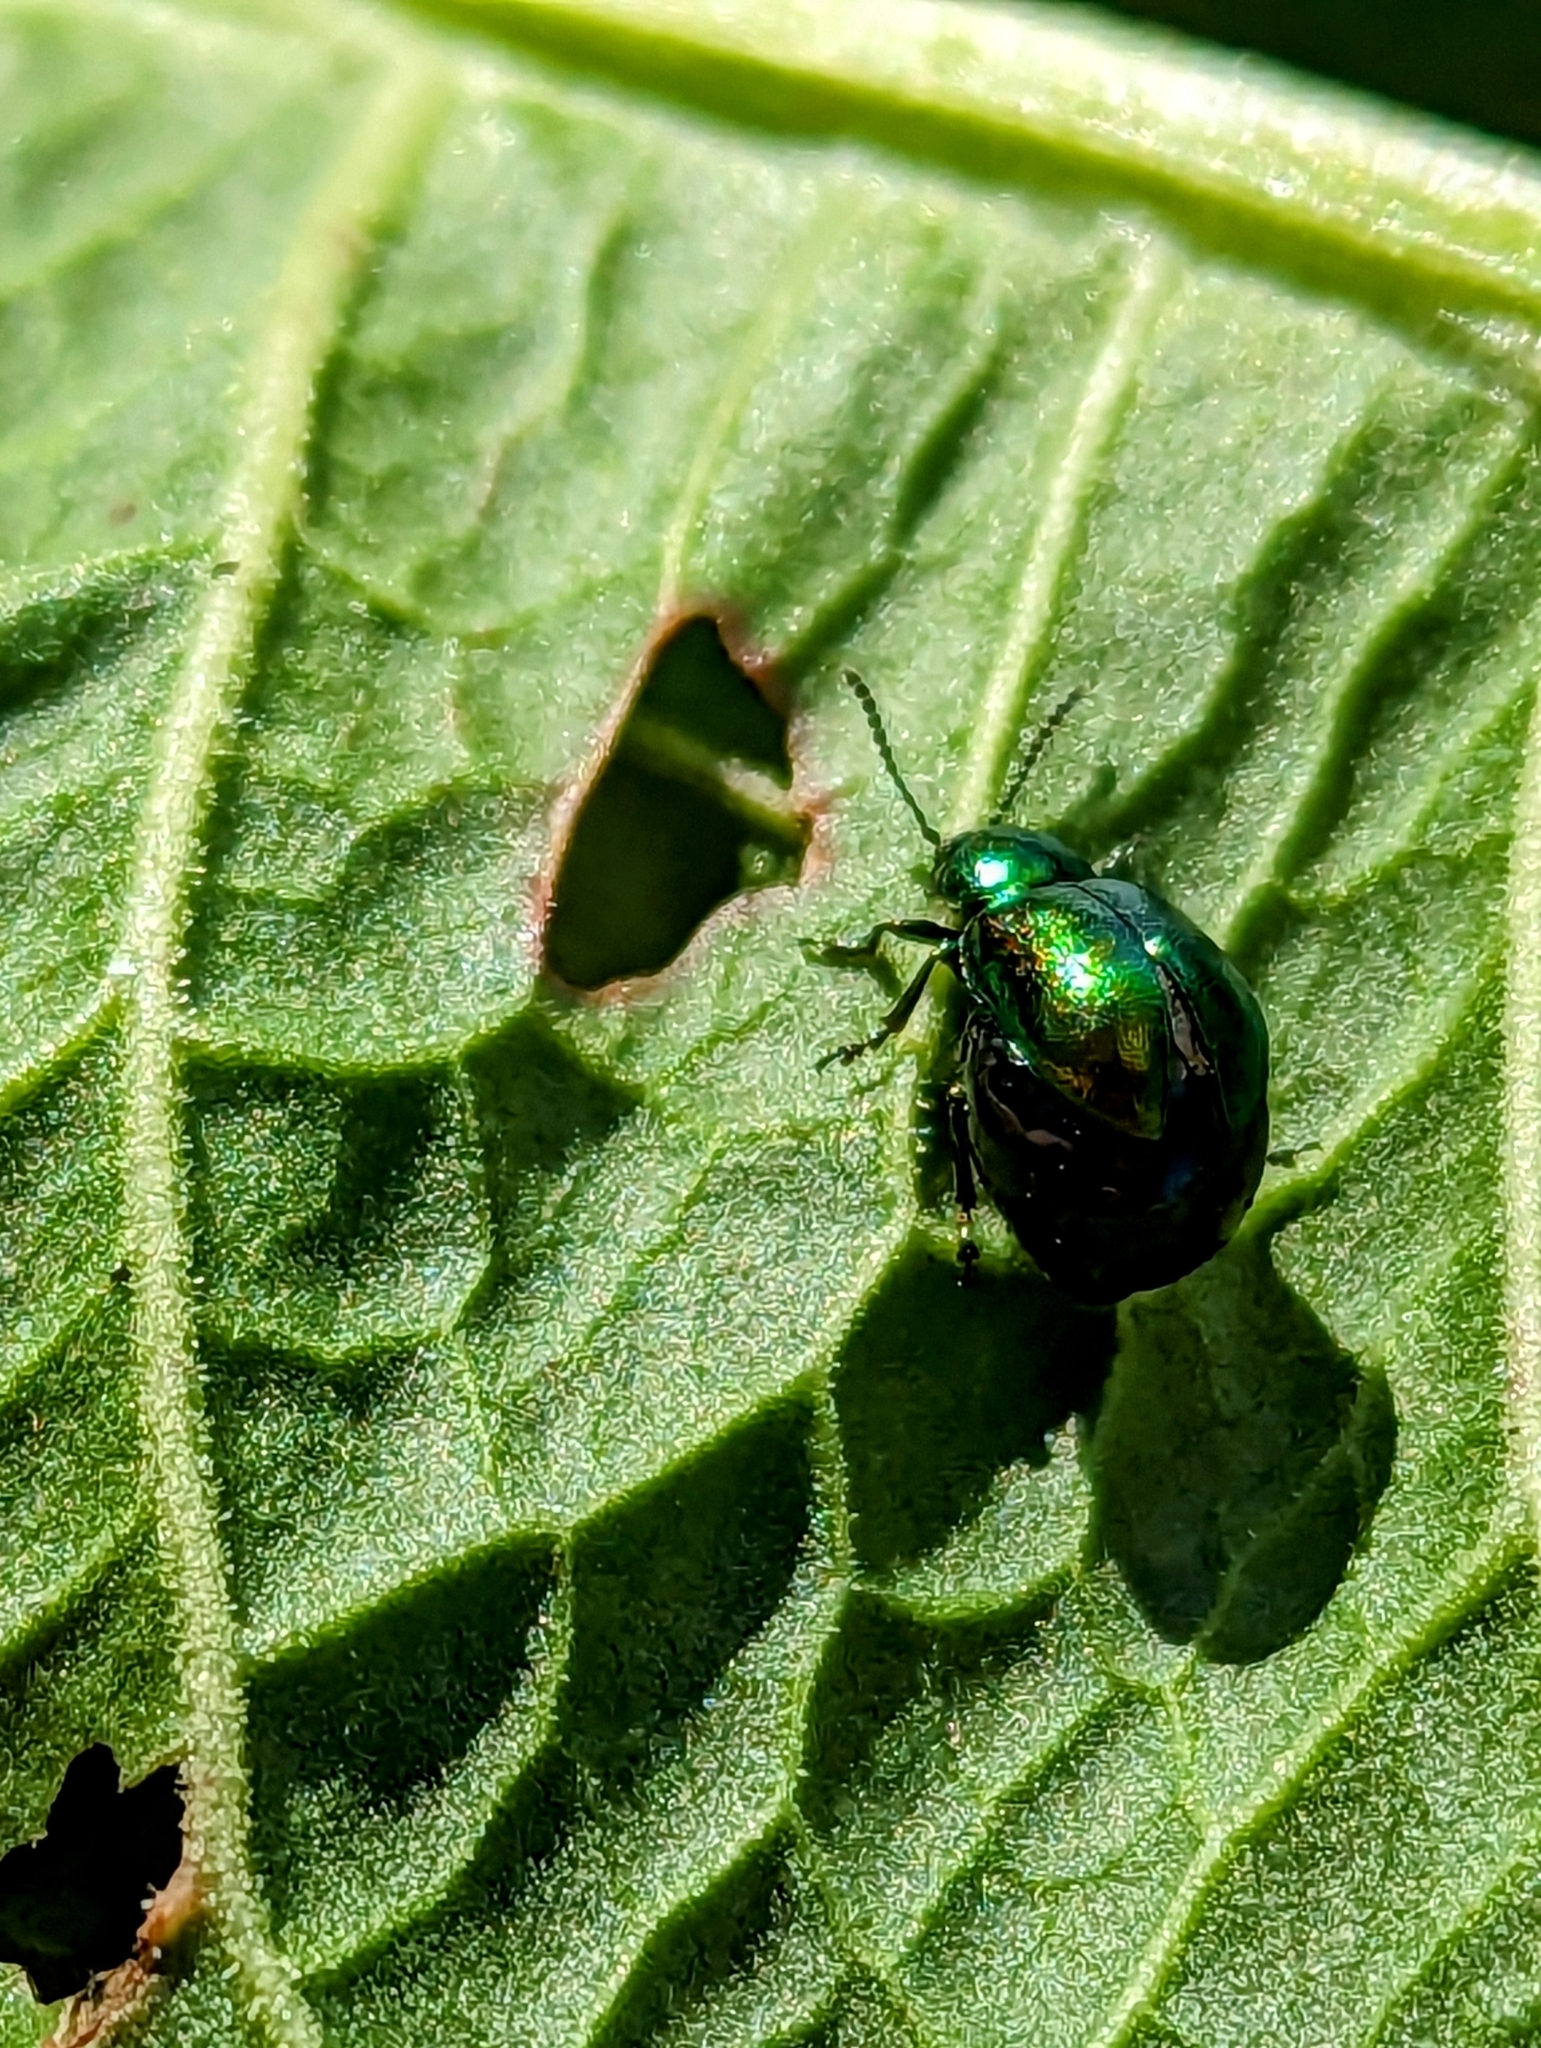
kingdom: Animalia
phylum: Arthropoda
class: Insecta
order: Coleoptera
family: Chrysomelidae
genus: Gastrophysa
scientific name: Gastrophysa viridula
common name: Green dock beetle
